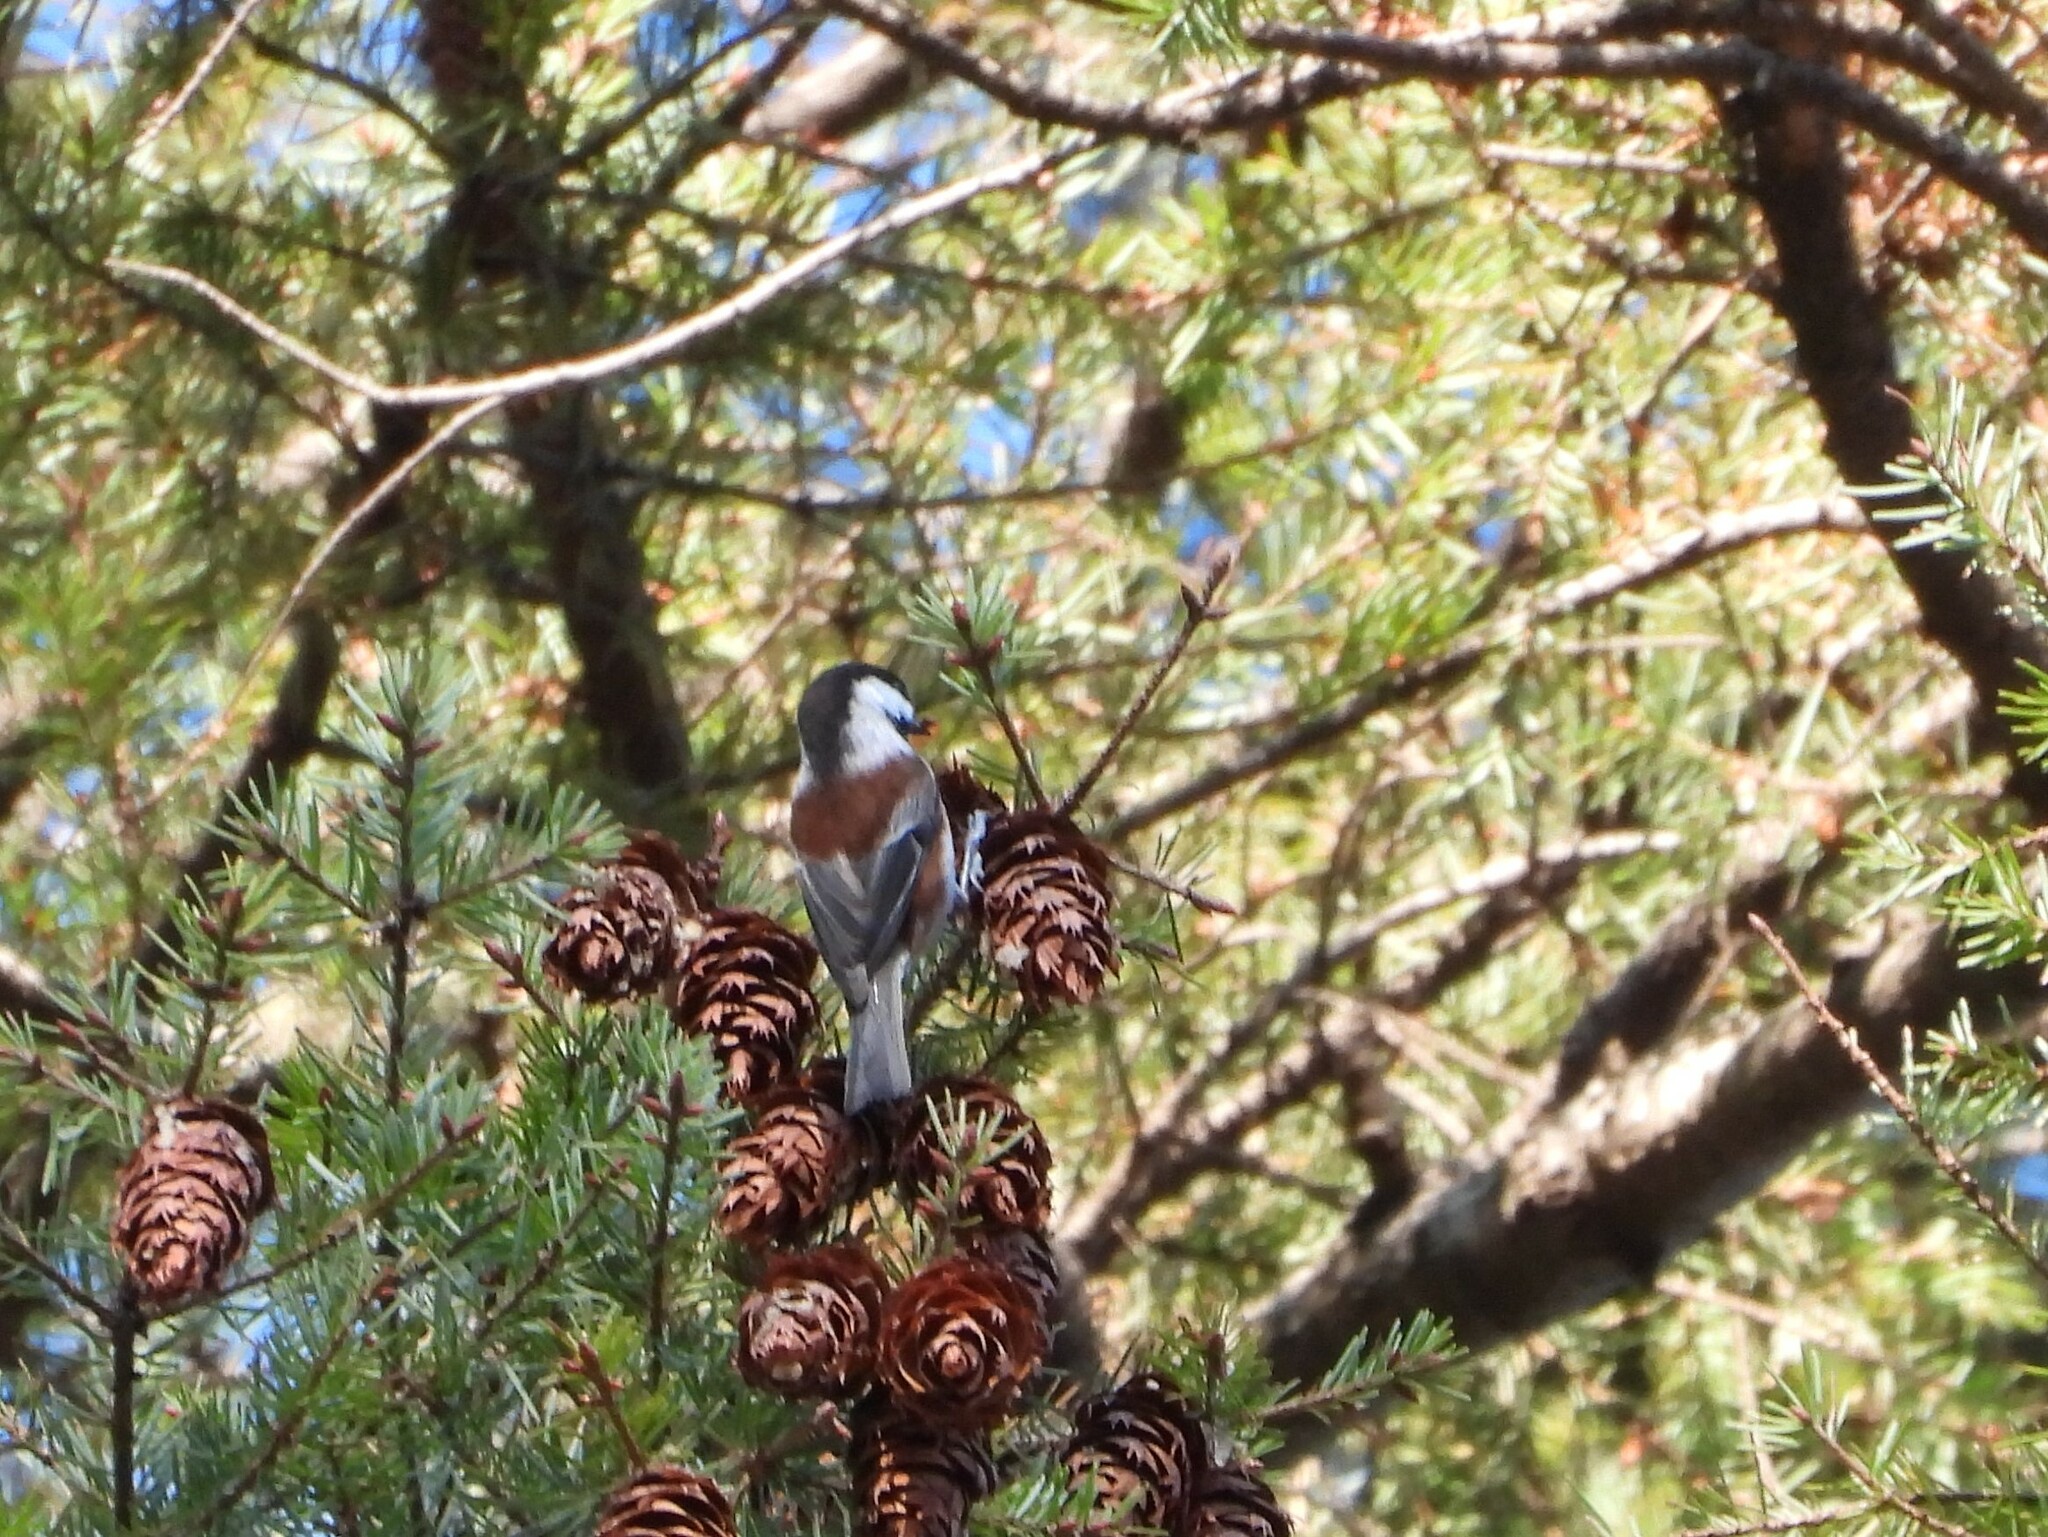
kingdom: Animalia
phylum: Chordata
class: Aves
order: Passeriformes
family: Paridae
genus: Poecile
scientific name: Poecile rufescens
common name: Chestnut-backed chickadee
